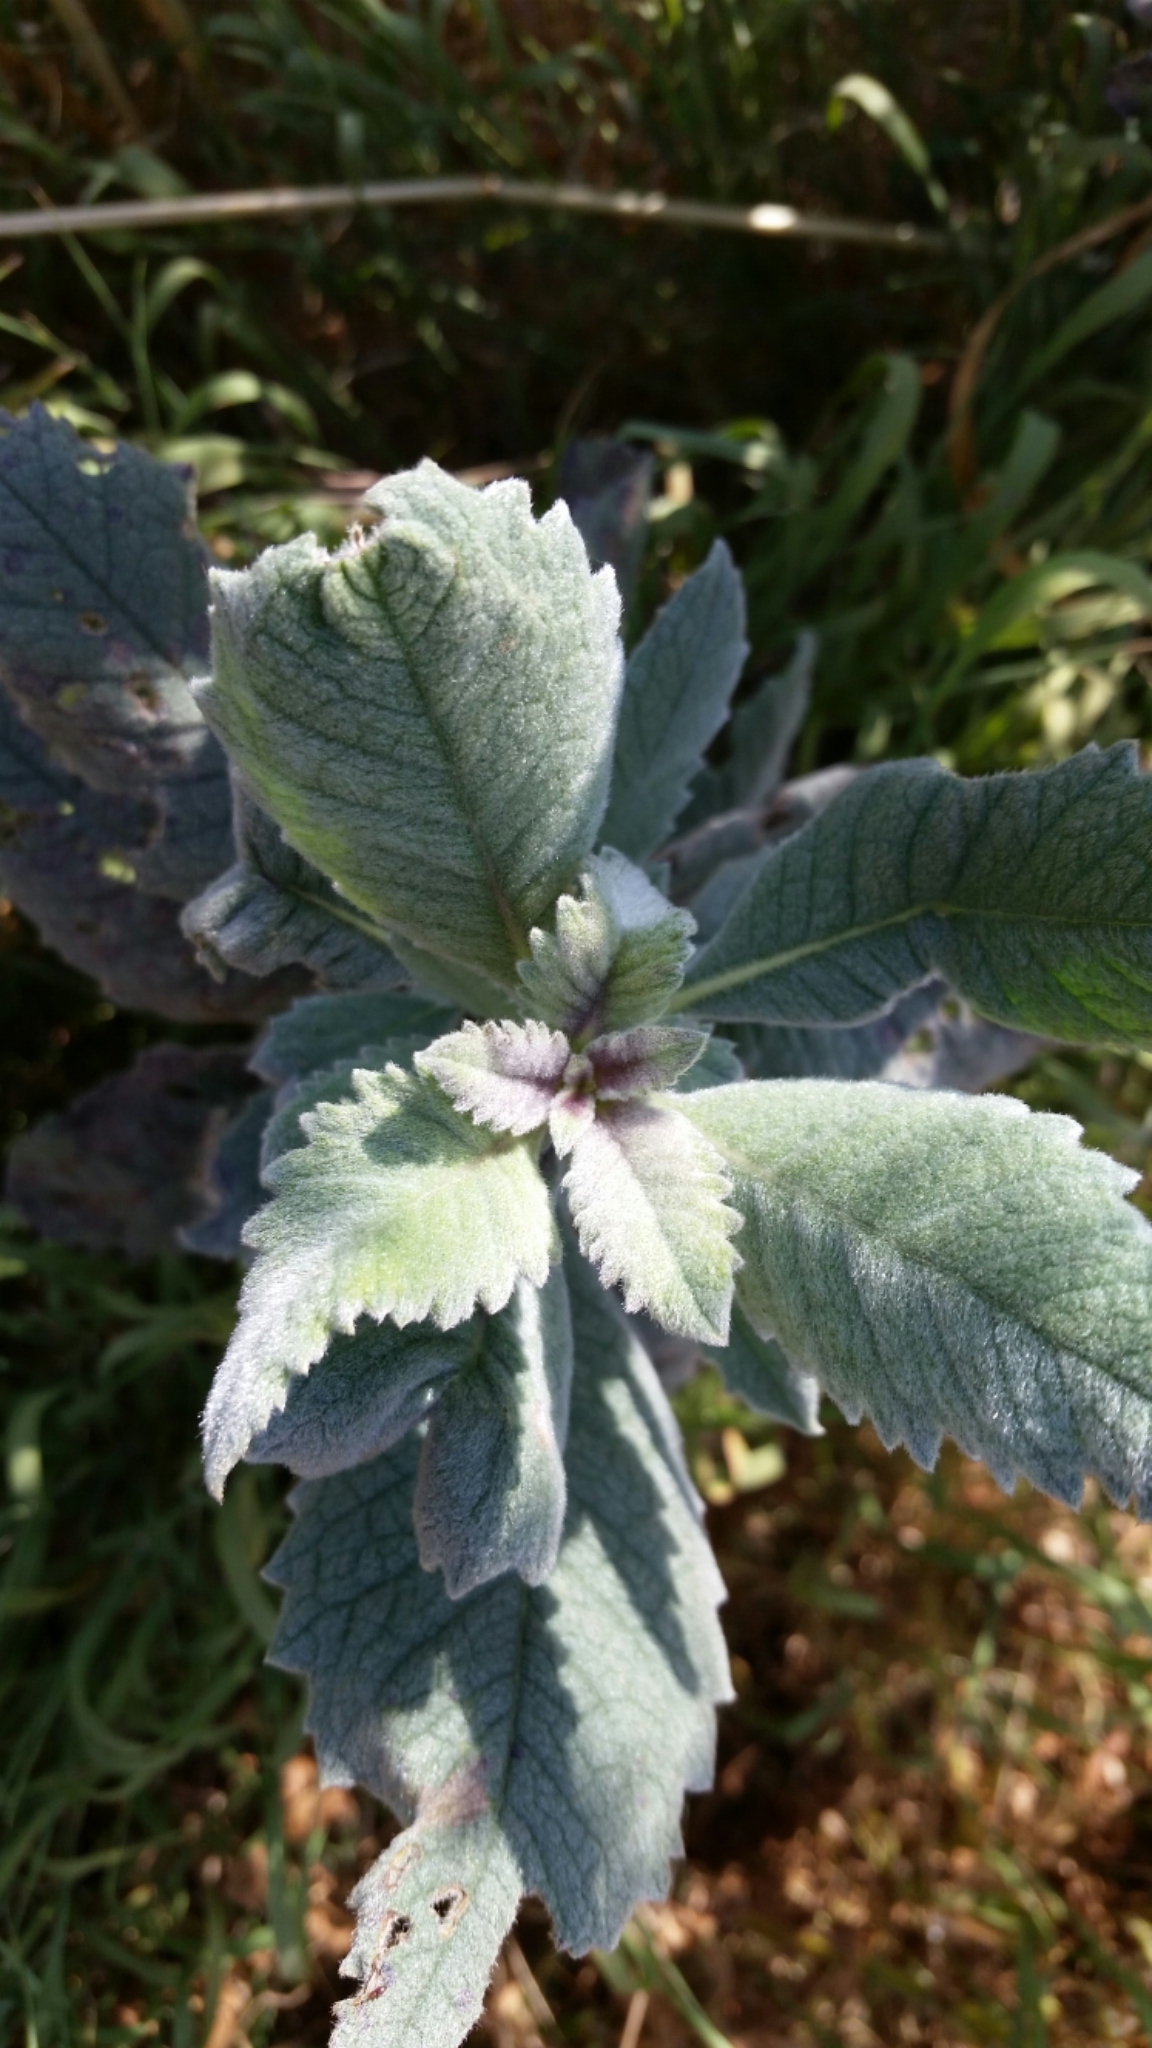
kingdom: Plantae
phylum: Tracheophyta
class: Magnoliopsida
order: Boraginales
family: Namaceae
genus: Eriodictyon
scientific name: Eriodictyon crassifolium
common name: Thick-leaf yerba-santa
